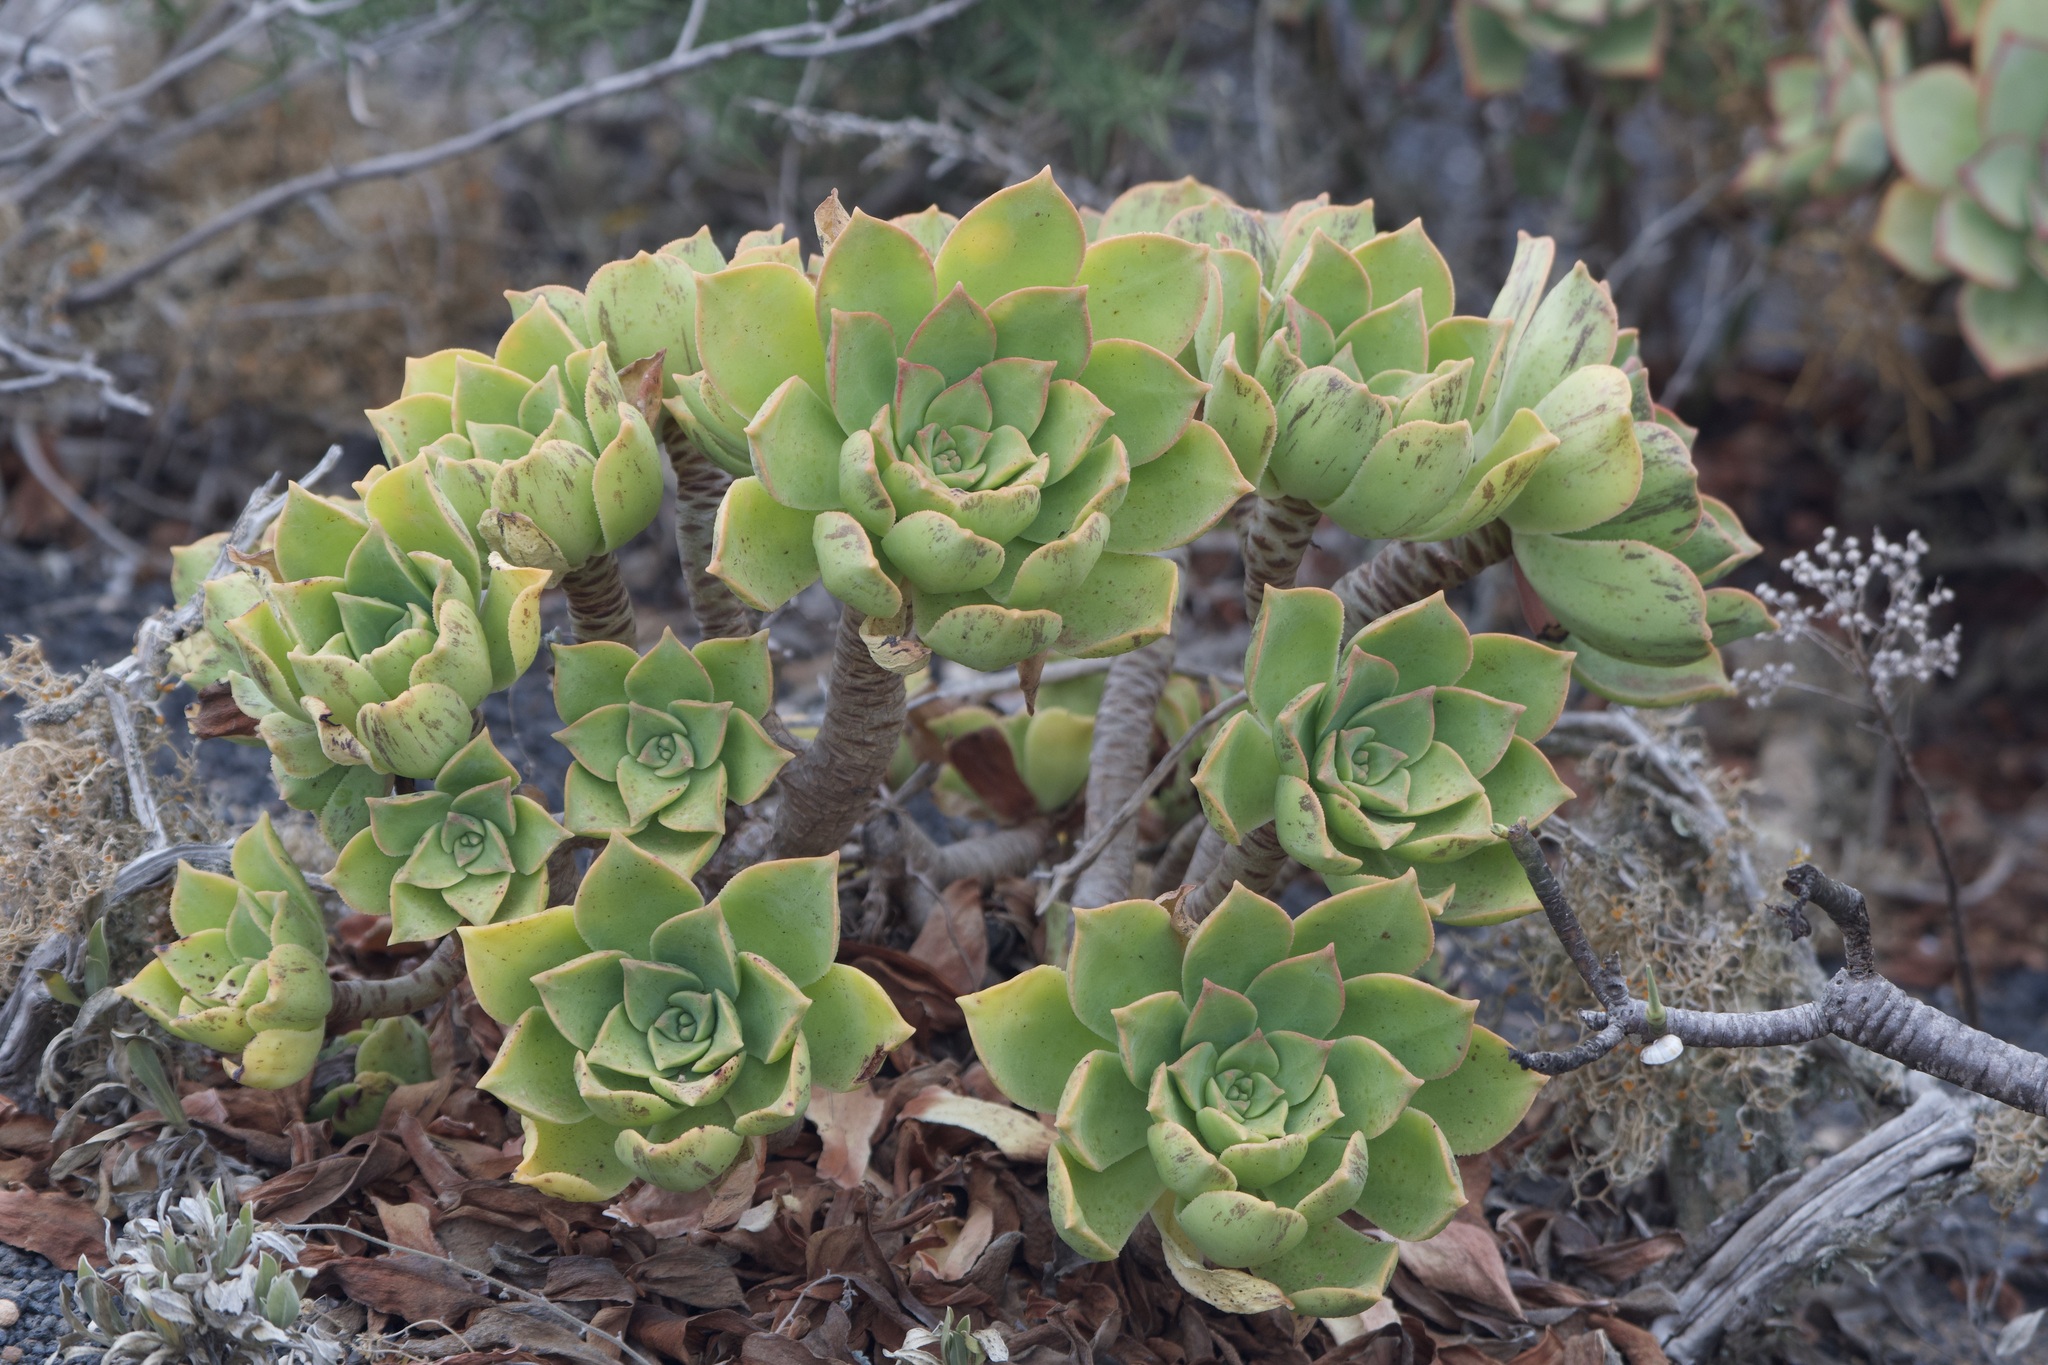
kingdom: Plantae
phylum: Tracheophyta
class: Magnoliopsida
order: Saxifragales
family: Crassulaceae
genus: Aeonium
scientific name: Aeonium lancerottense
